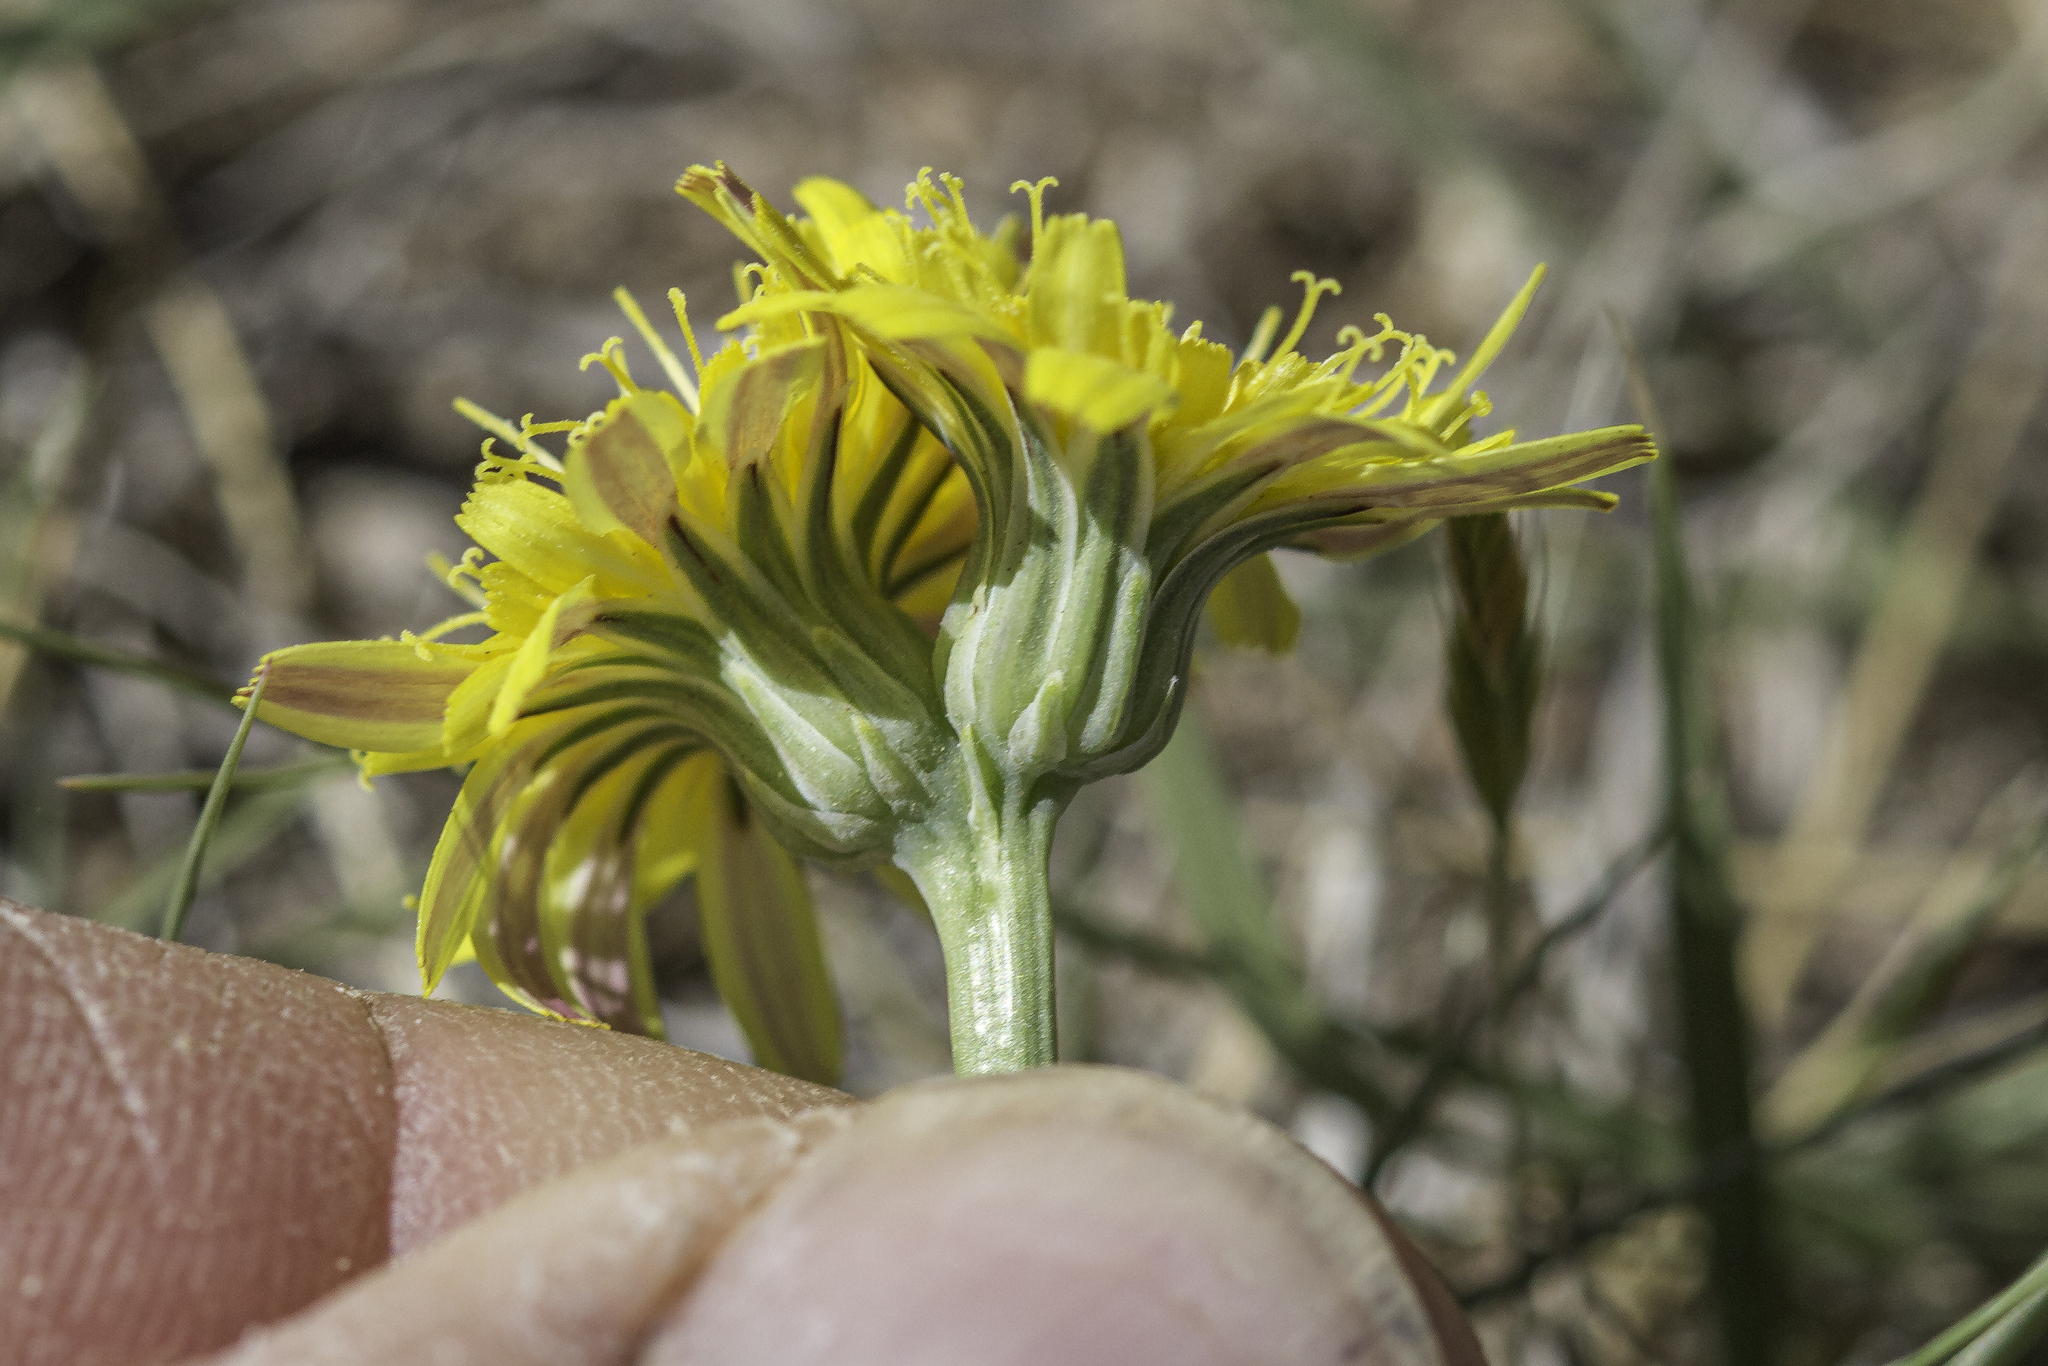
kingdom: Plantae
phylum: Tracheophyta
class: Magnoliopsida
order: Asterales
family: Asteraceae
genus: Malacothrix
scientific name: Malacothrix fendleri
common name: Fendler's desert-dandelion
